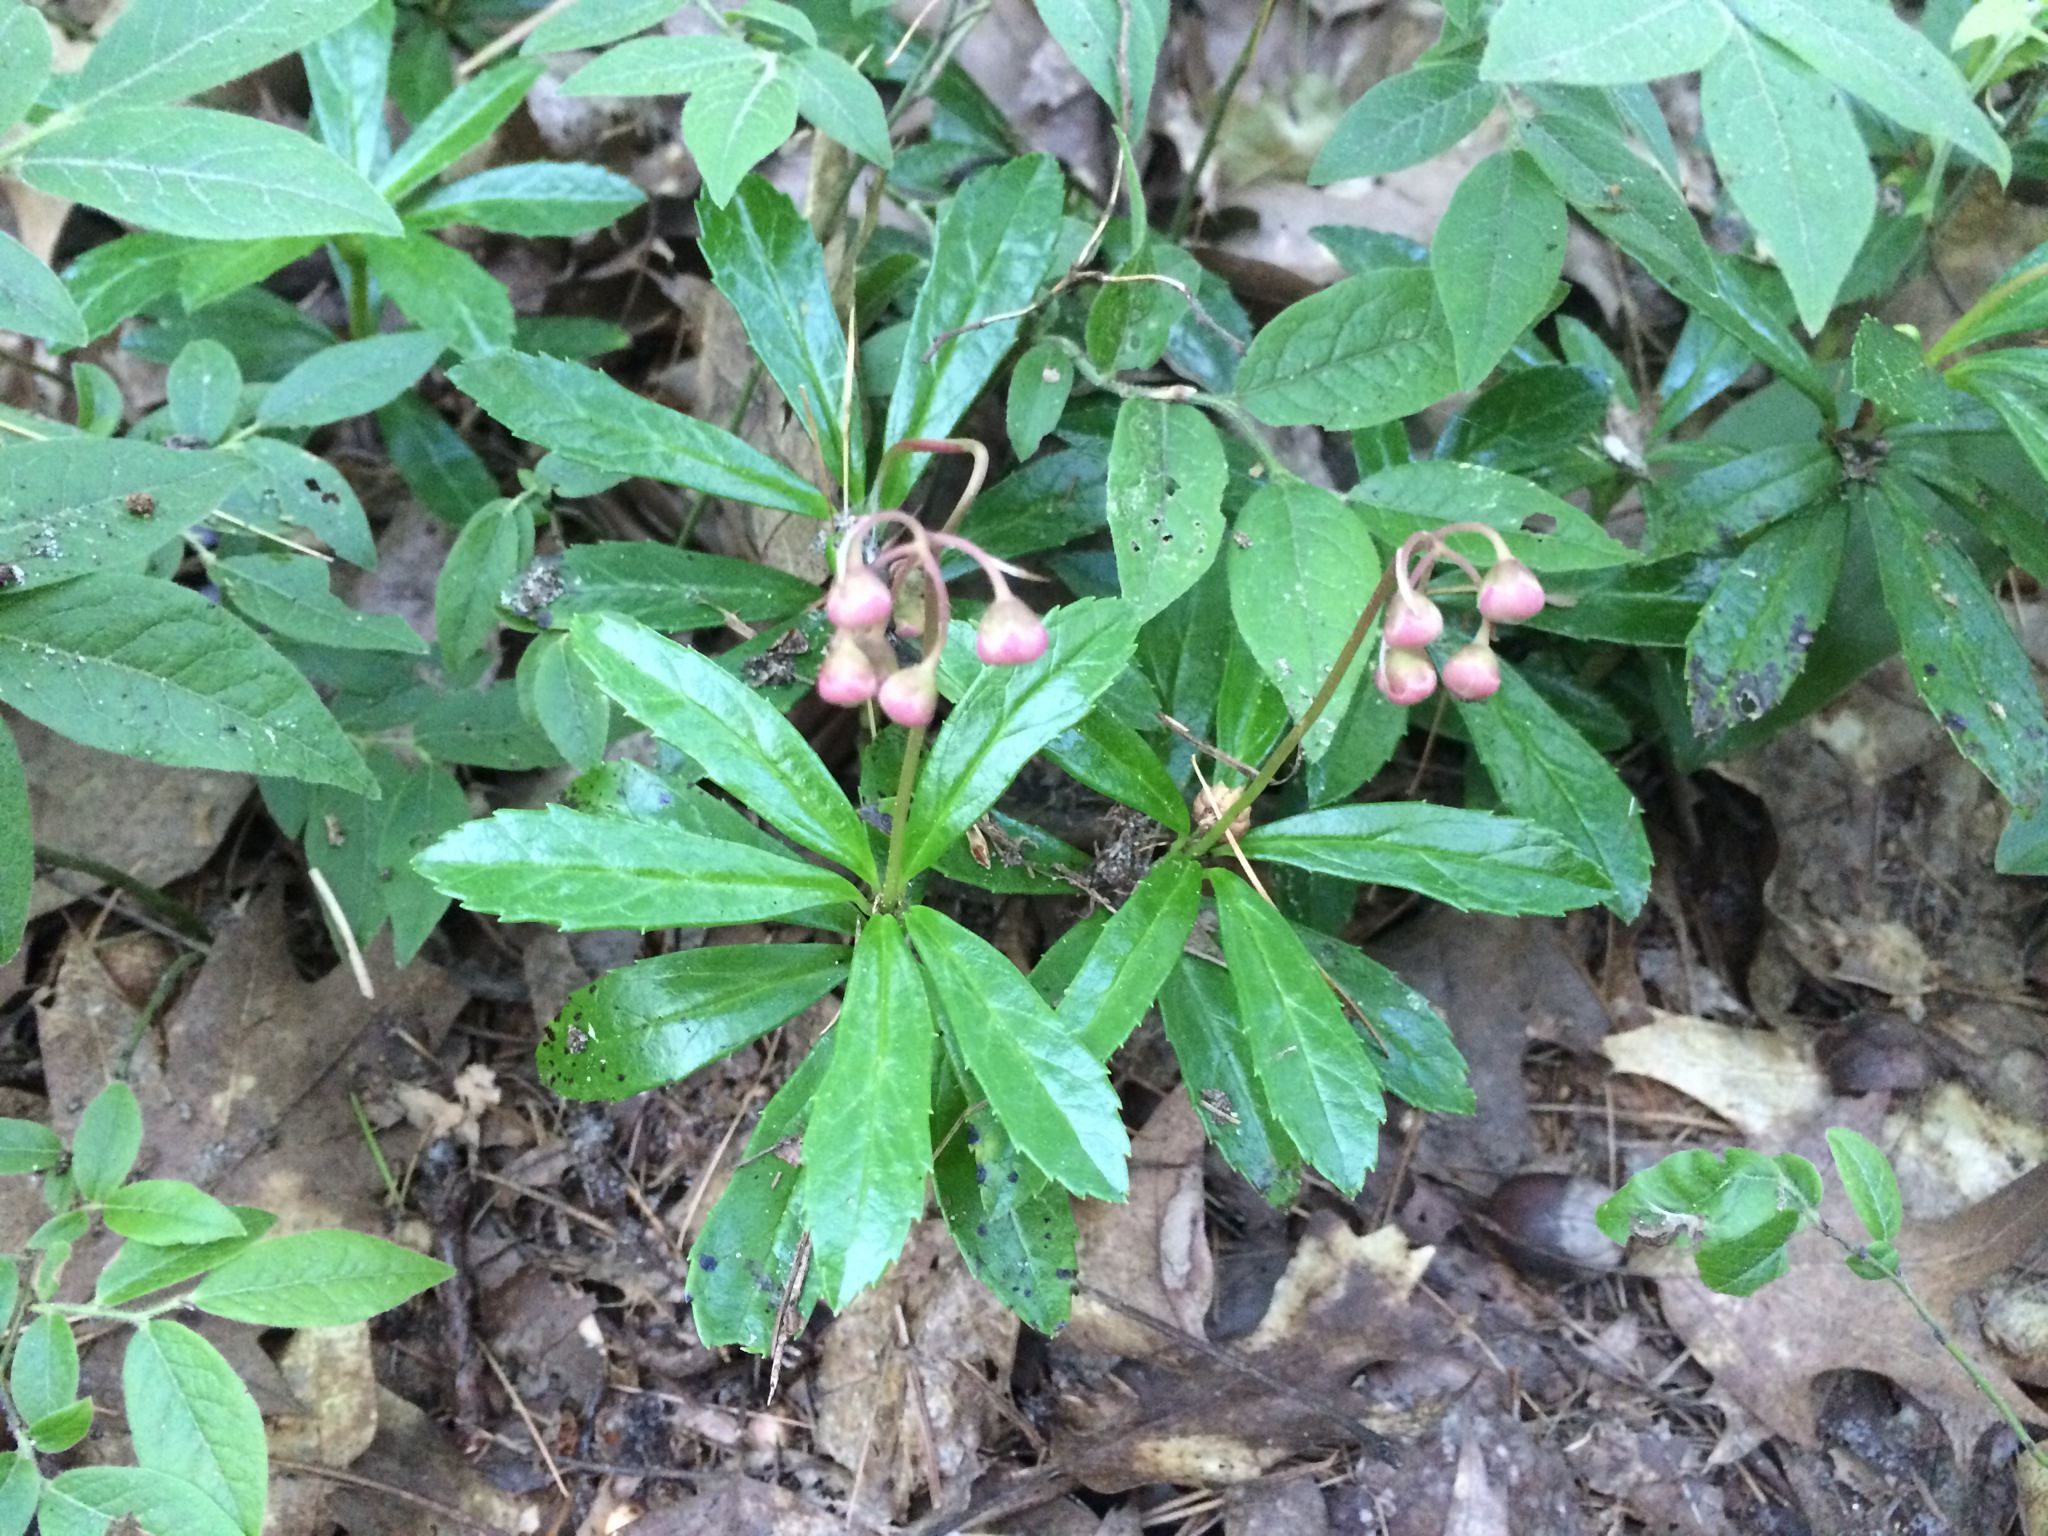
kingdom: Plantae
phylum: Tracheophyta
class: Magnoliopsida
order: Ericales
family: Ericaceae
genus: Chimaphila
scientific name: Chimaphila umbellata
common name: Pipsissewa
